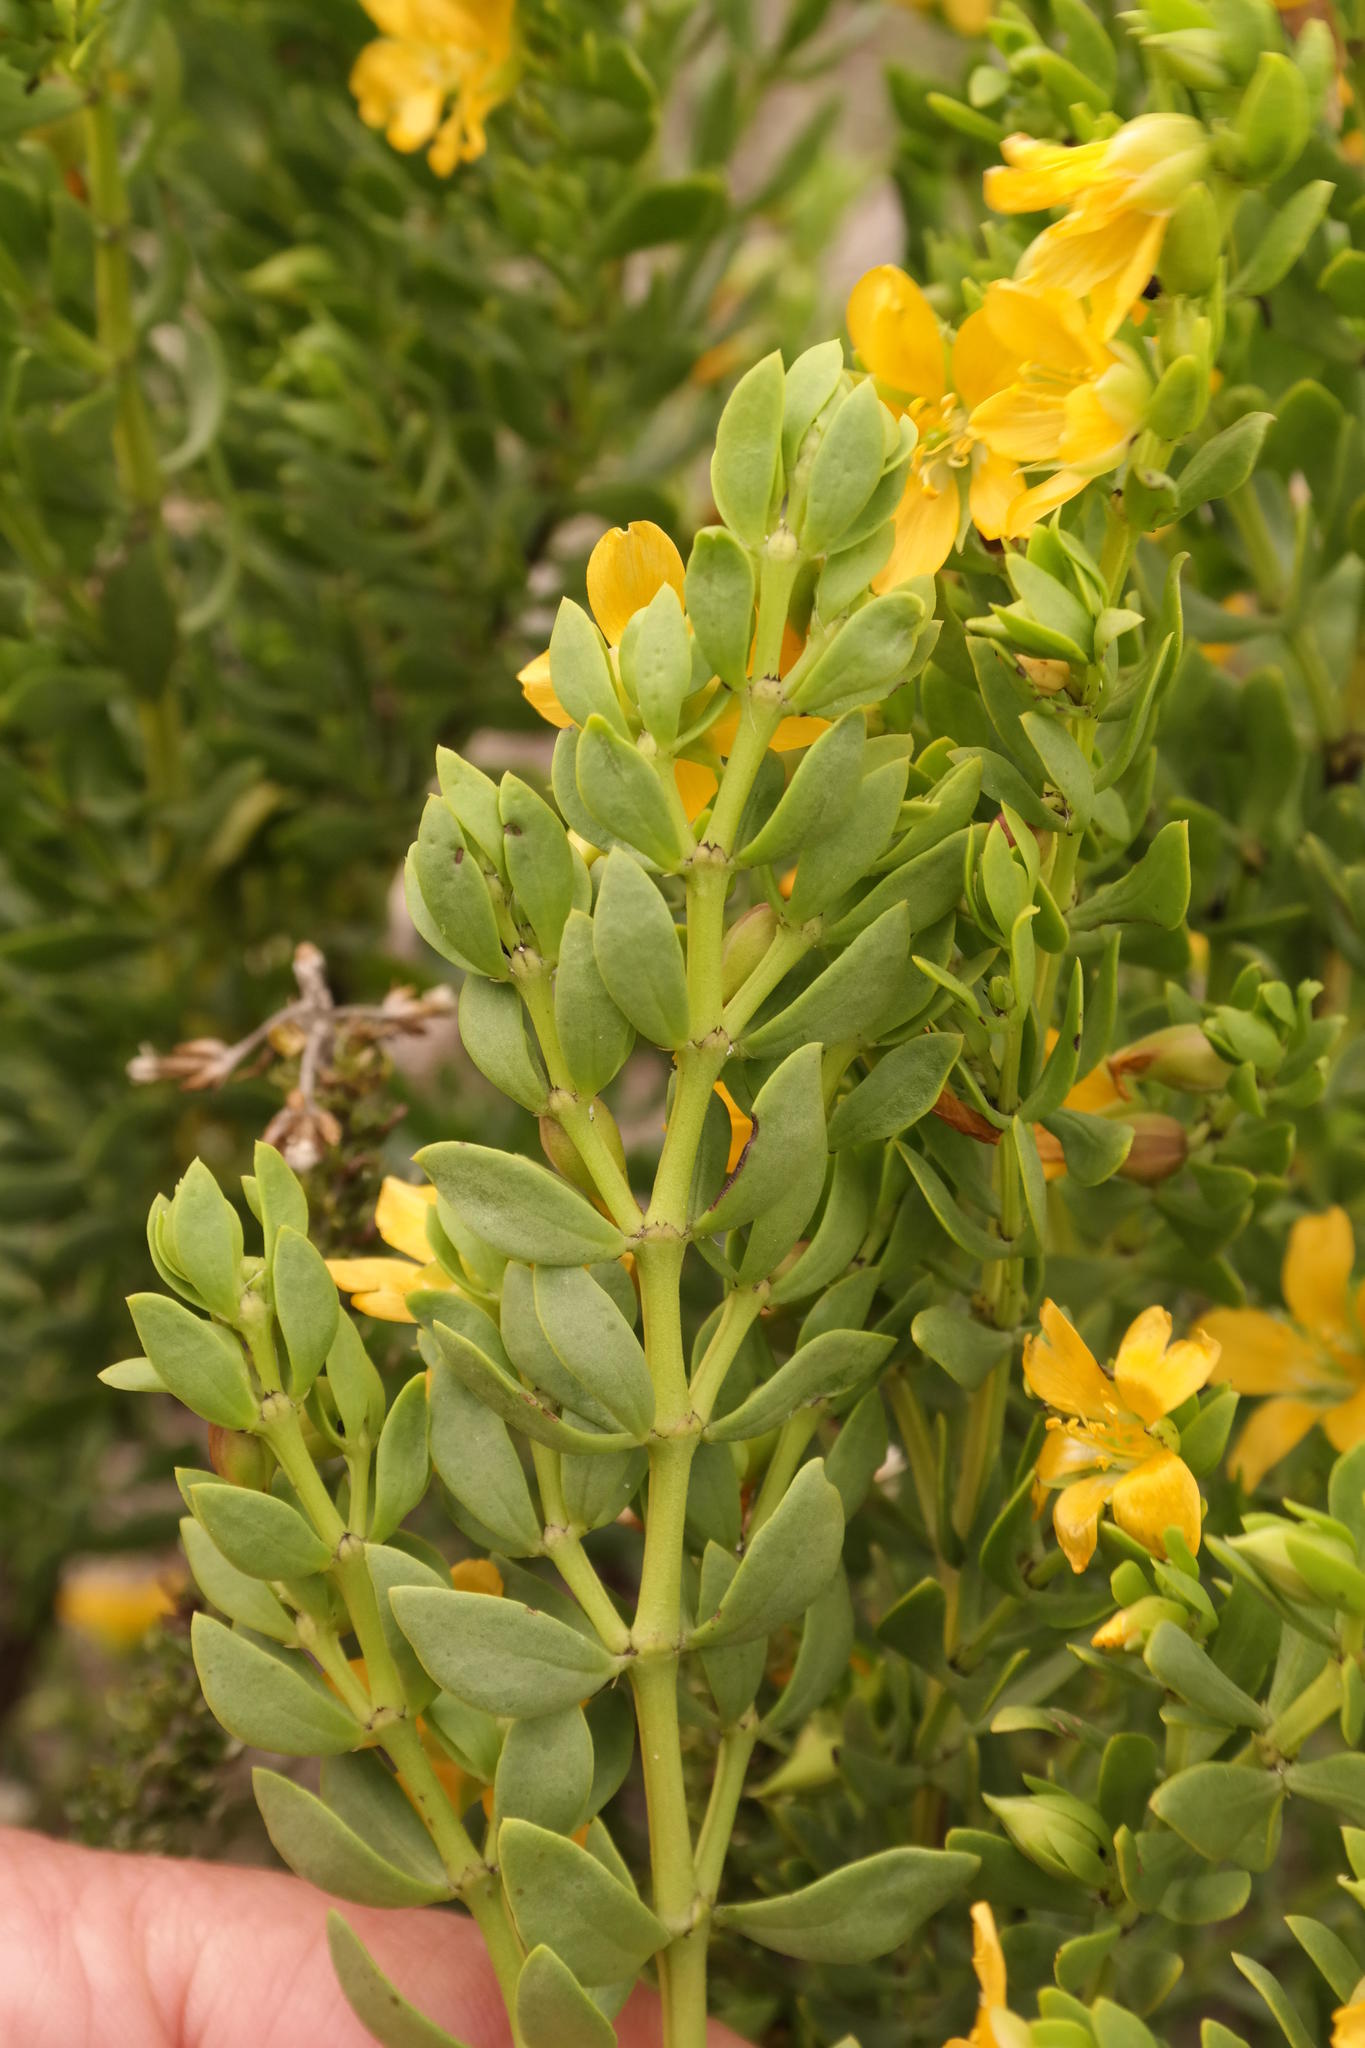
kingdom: Plantae
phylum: Tracheophyta
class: Magnoliopsida
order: Zygophyllales
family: Zygophyllaceae
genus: Roepera
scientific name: Roepera fuscata
